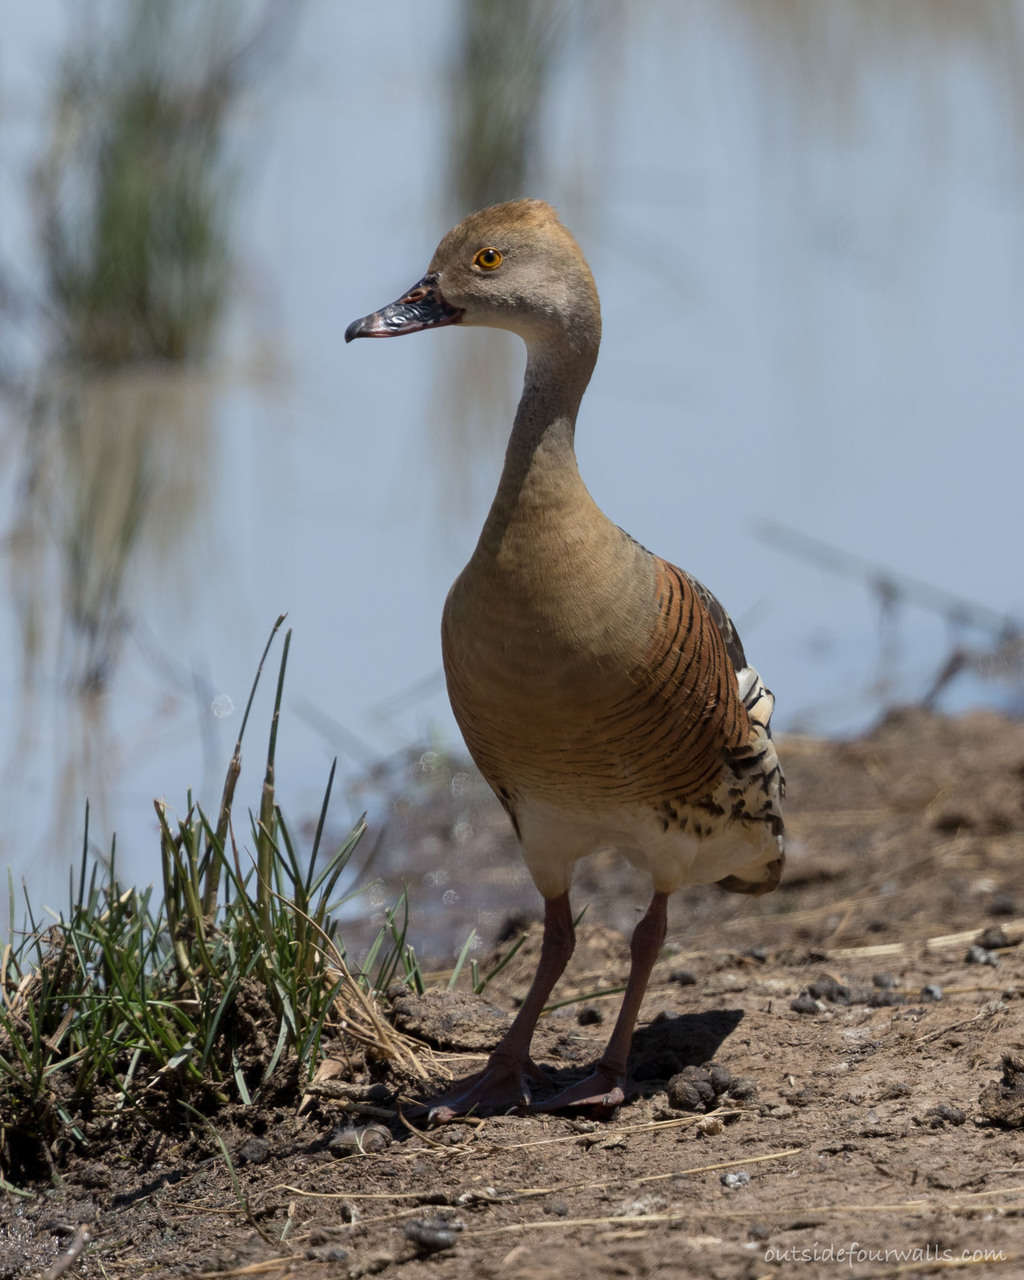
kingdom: Animalia
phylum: Chordata
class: Aves
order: Anseriformes
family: Anatidae
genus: Dendrocygna
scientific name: Dendrocygna eytoni
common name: Plumed whistling-duck
